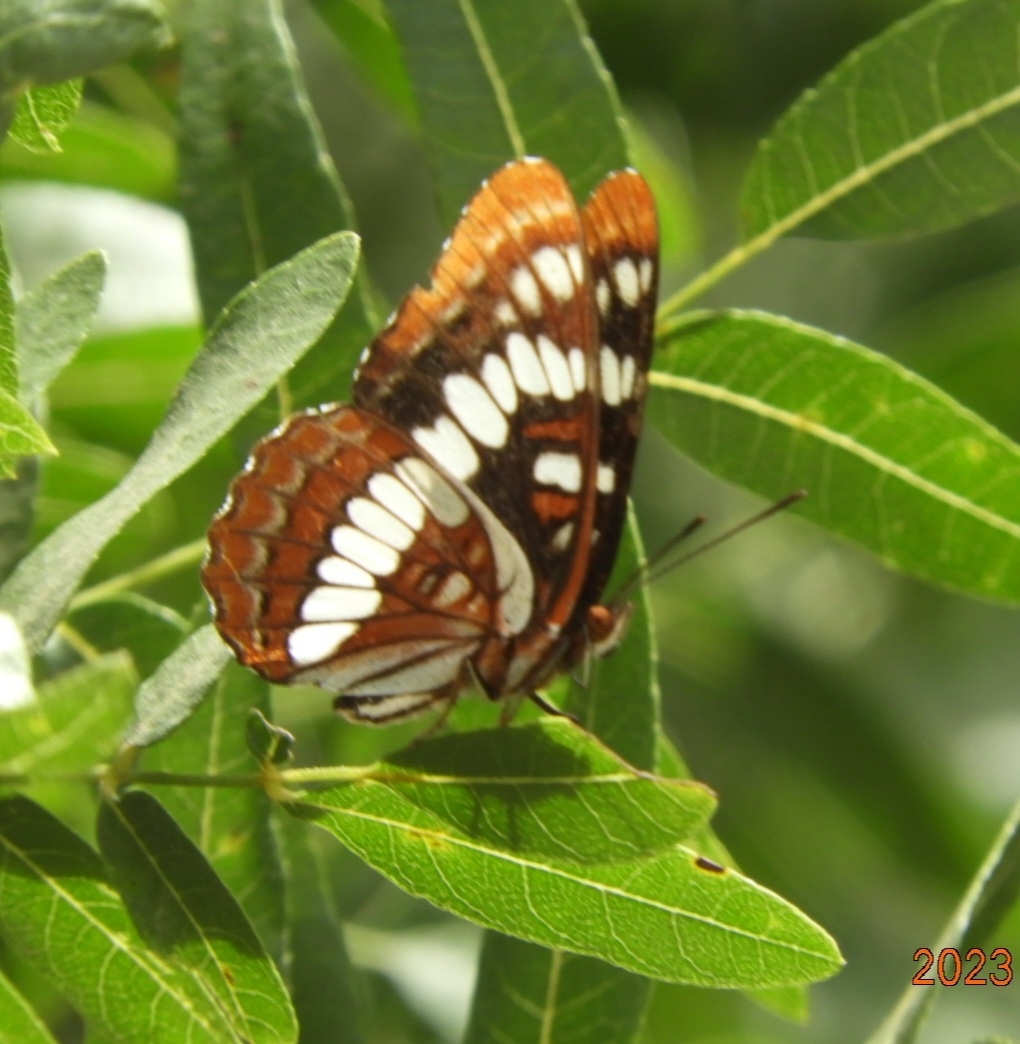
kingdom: Animalia
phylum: Arthropoda
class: Insecta
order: Lepidoptera
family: Nymphalidae
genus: Limenitis
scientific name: Limenitis lorquini
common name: Lorquin's admiral
